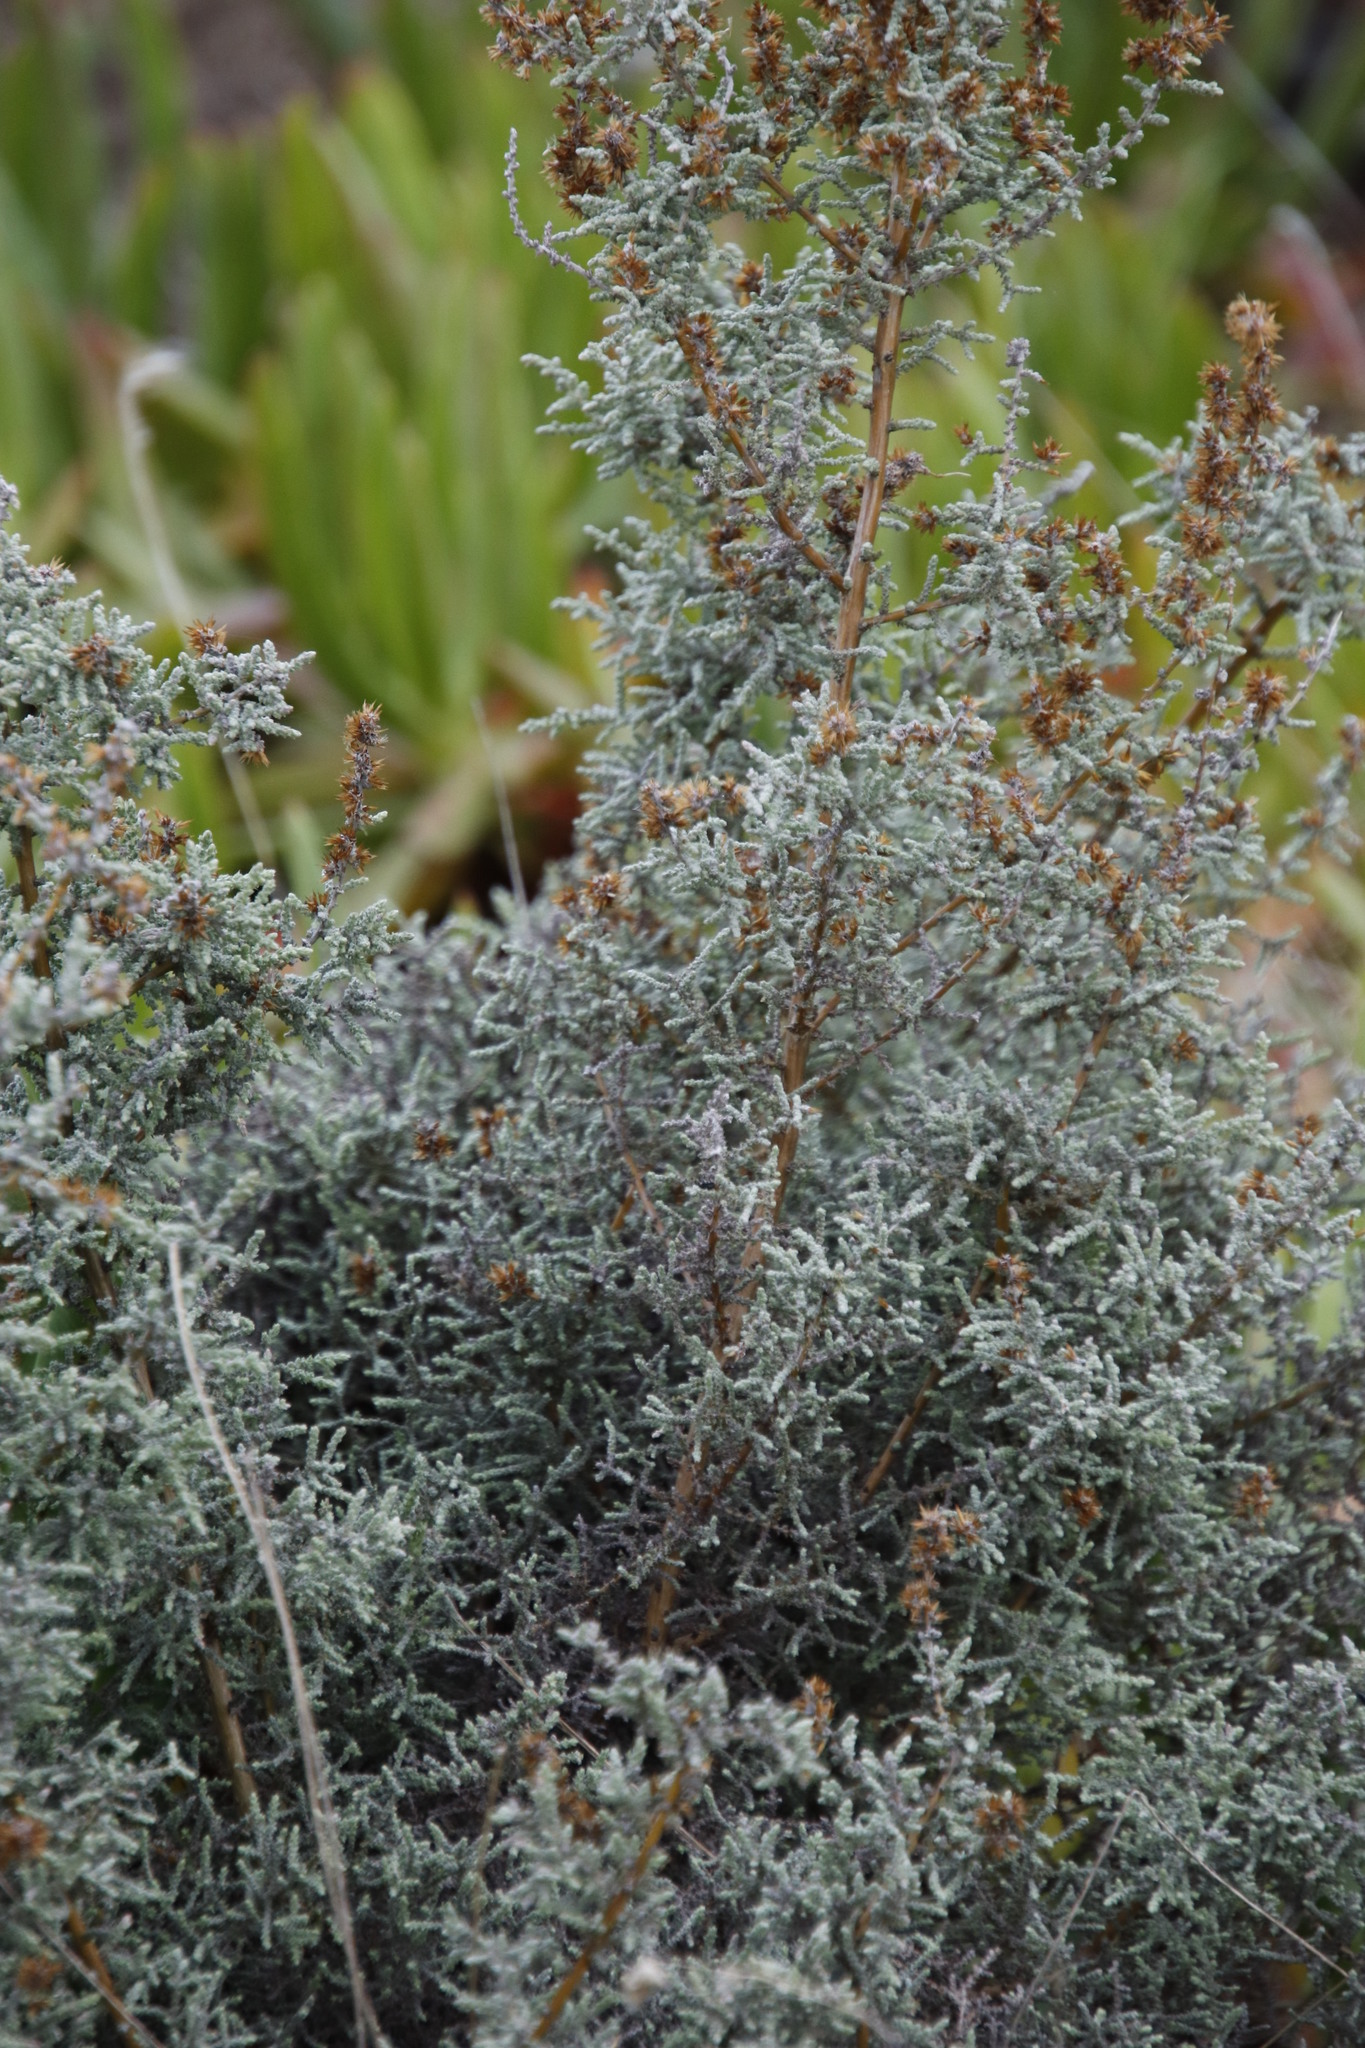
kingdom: Plantae
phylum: Tracheophyta
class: Magnoliopsida
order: Asterales
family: Asteraceae
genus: Seriphium
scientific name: Seriphium cinereum
